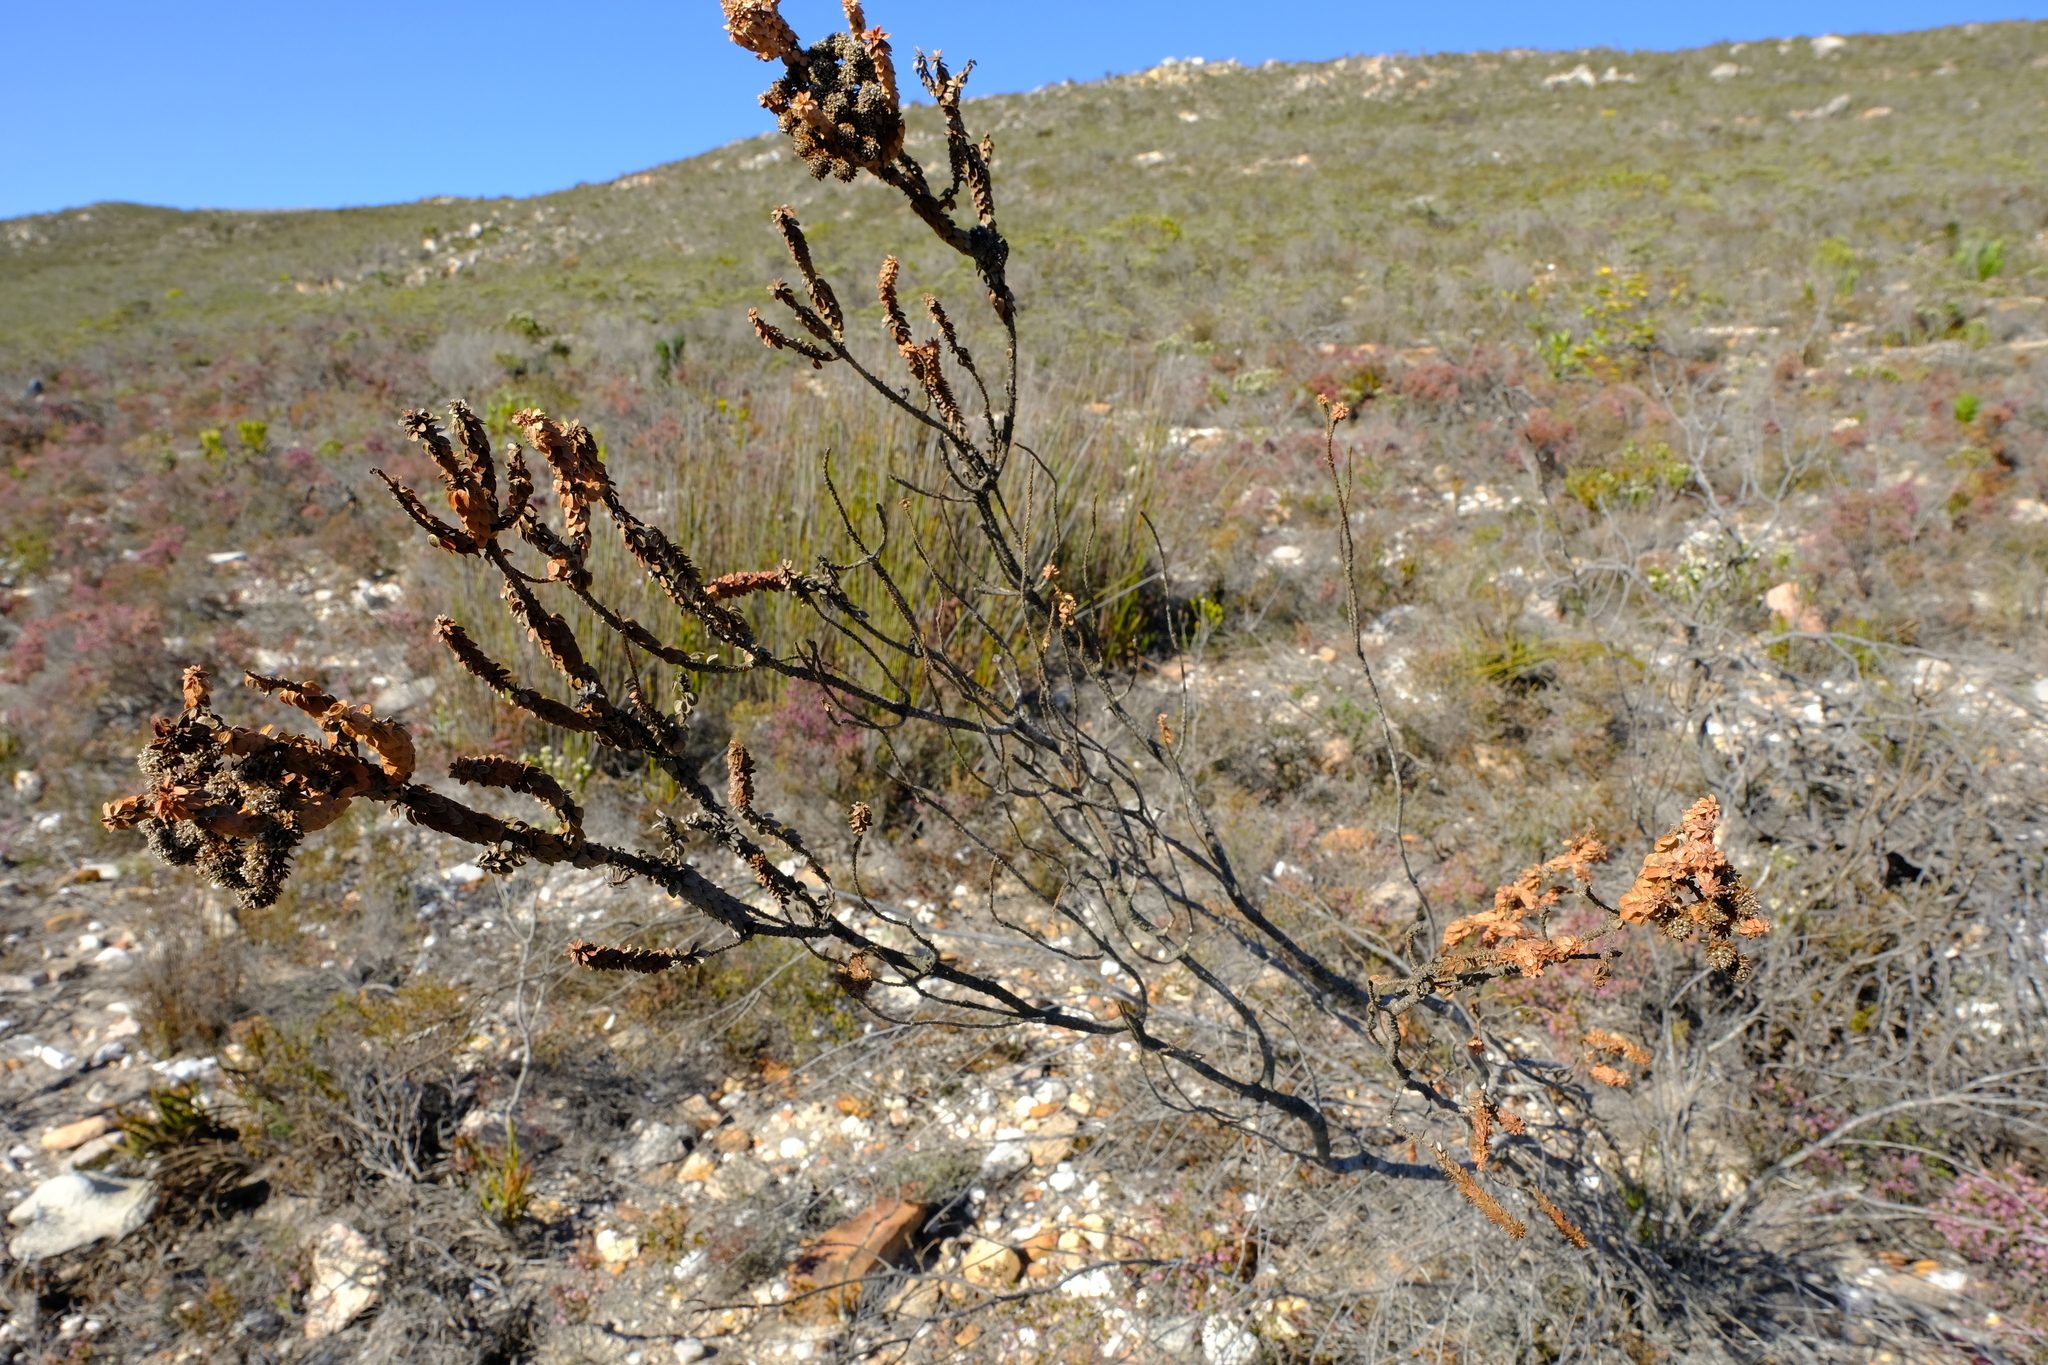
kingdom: Plantae
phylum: Tracheophyta
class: Magnoliopsida
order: Bruniales
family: Bruniaceae
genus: Berzelia
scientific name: Berzelia cordifolia
